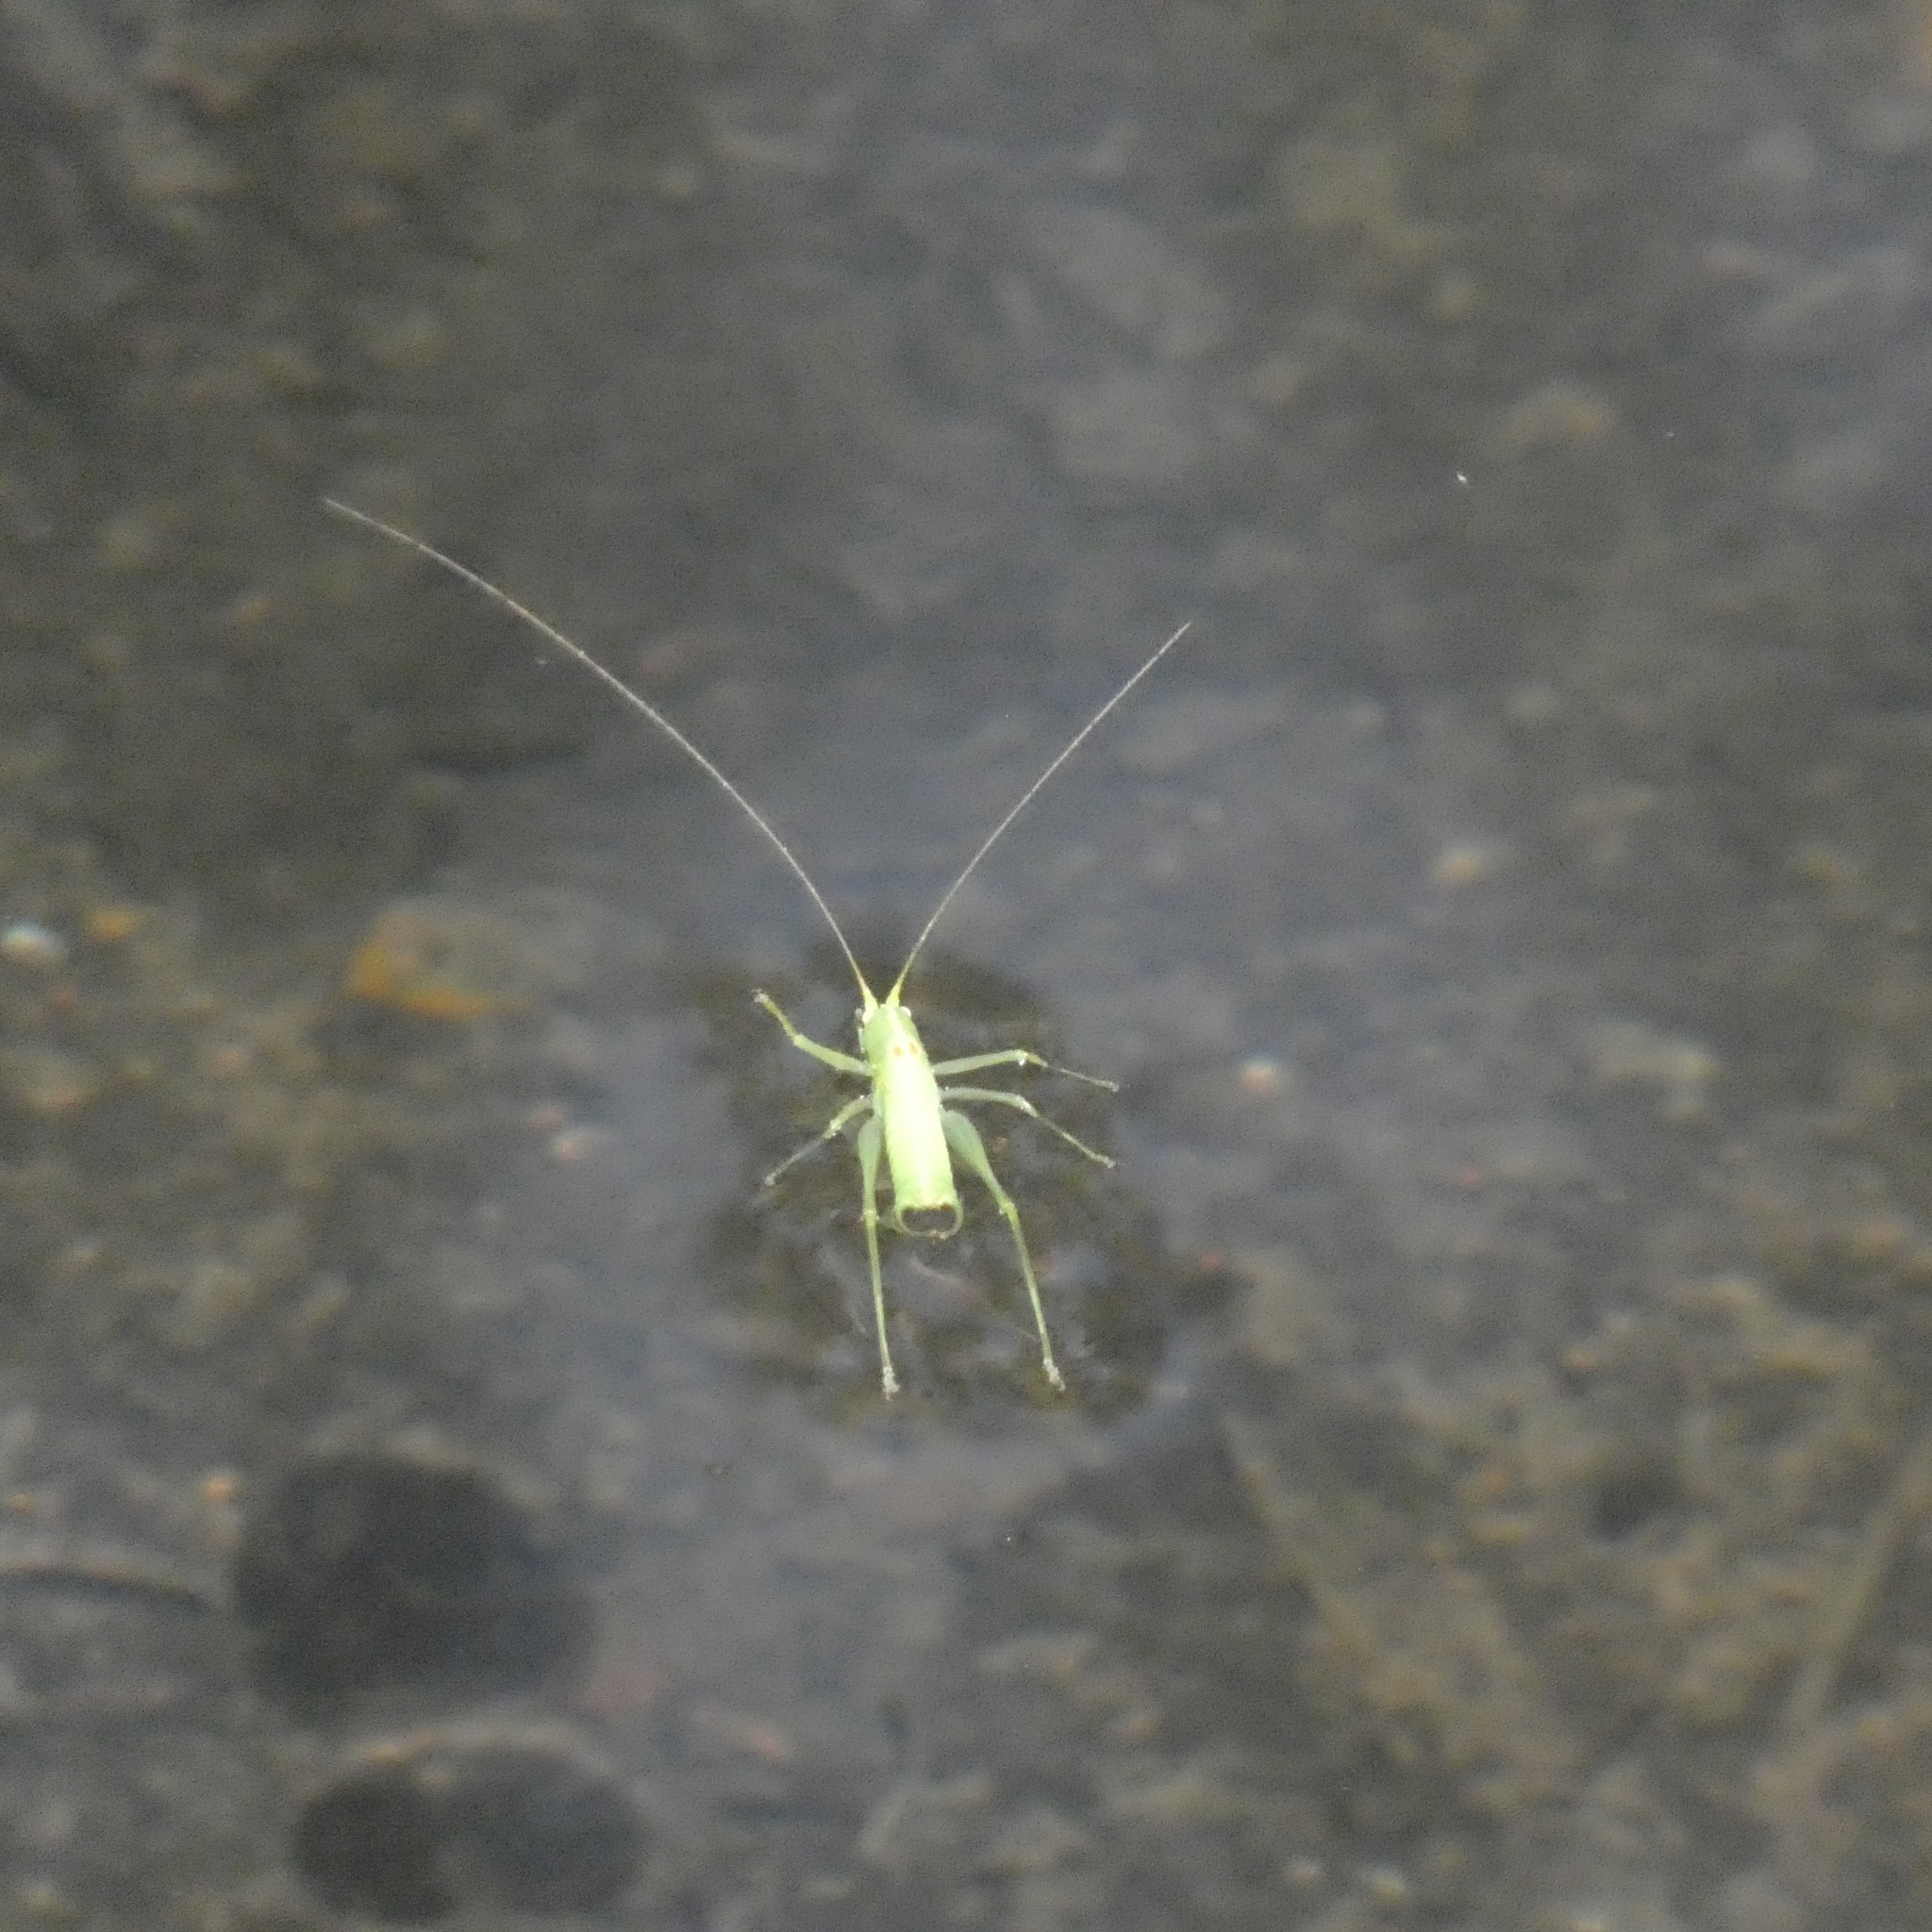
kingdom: Animalia
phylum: Arthropoda
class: Insecta
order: Orthoptera
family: Tettigoniidae
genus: Meconema
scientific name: Meconema meridionale
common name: Southern oak bush-cricket
